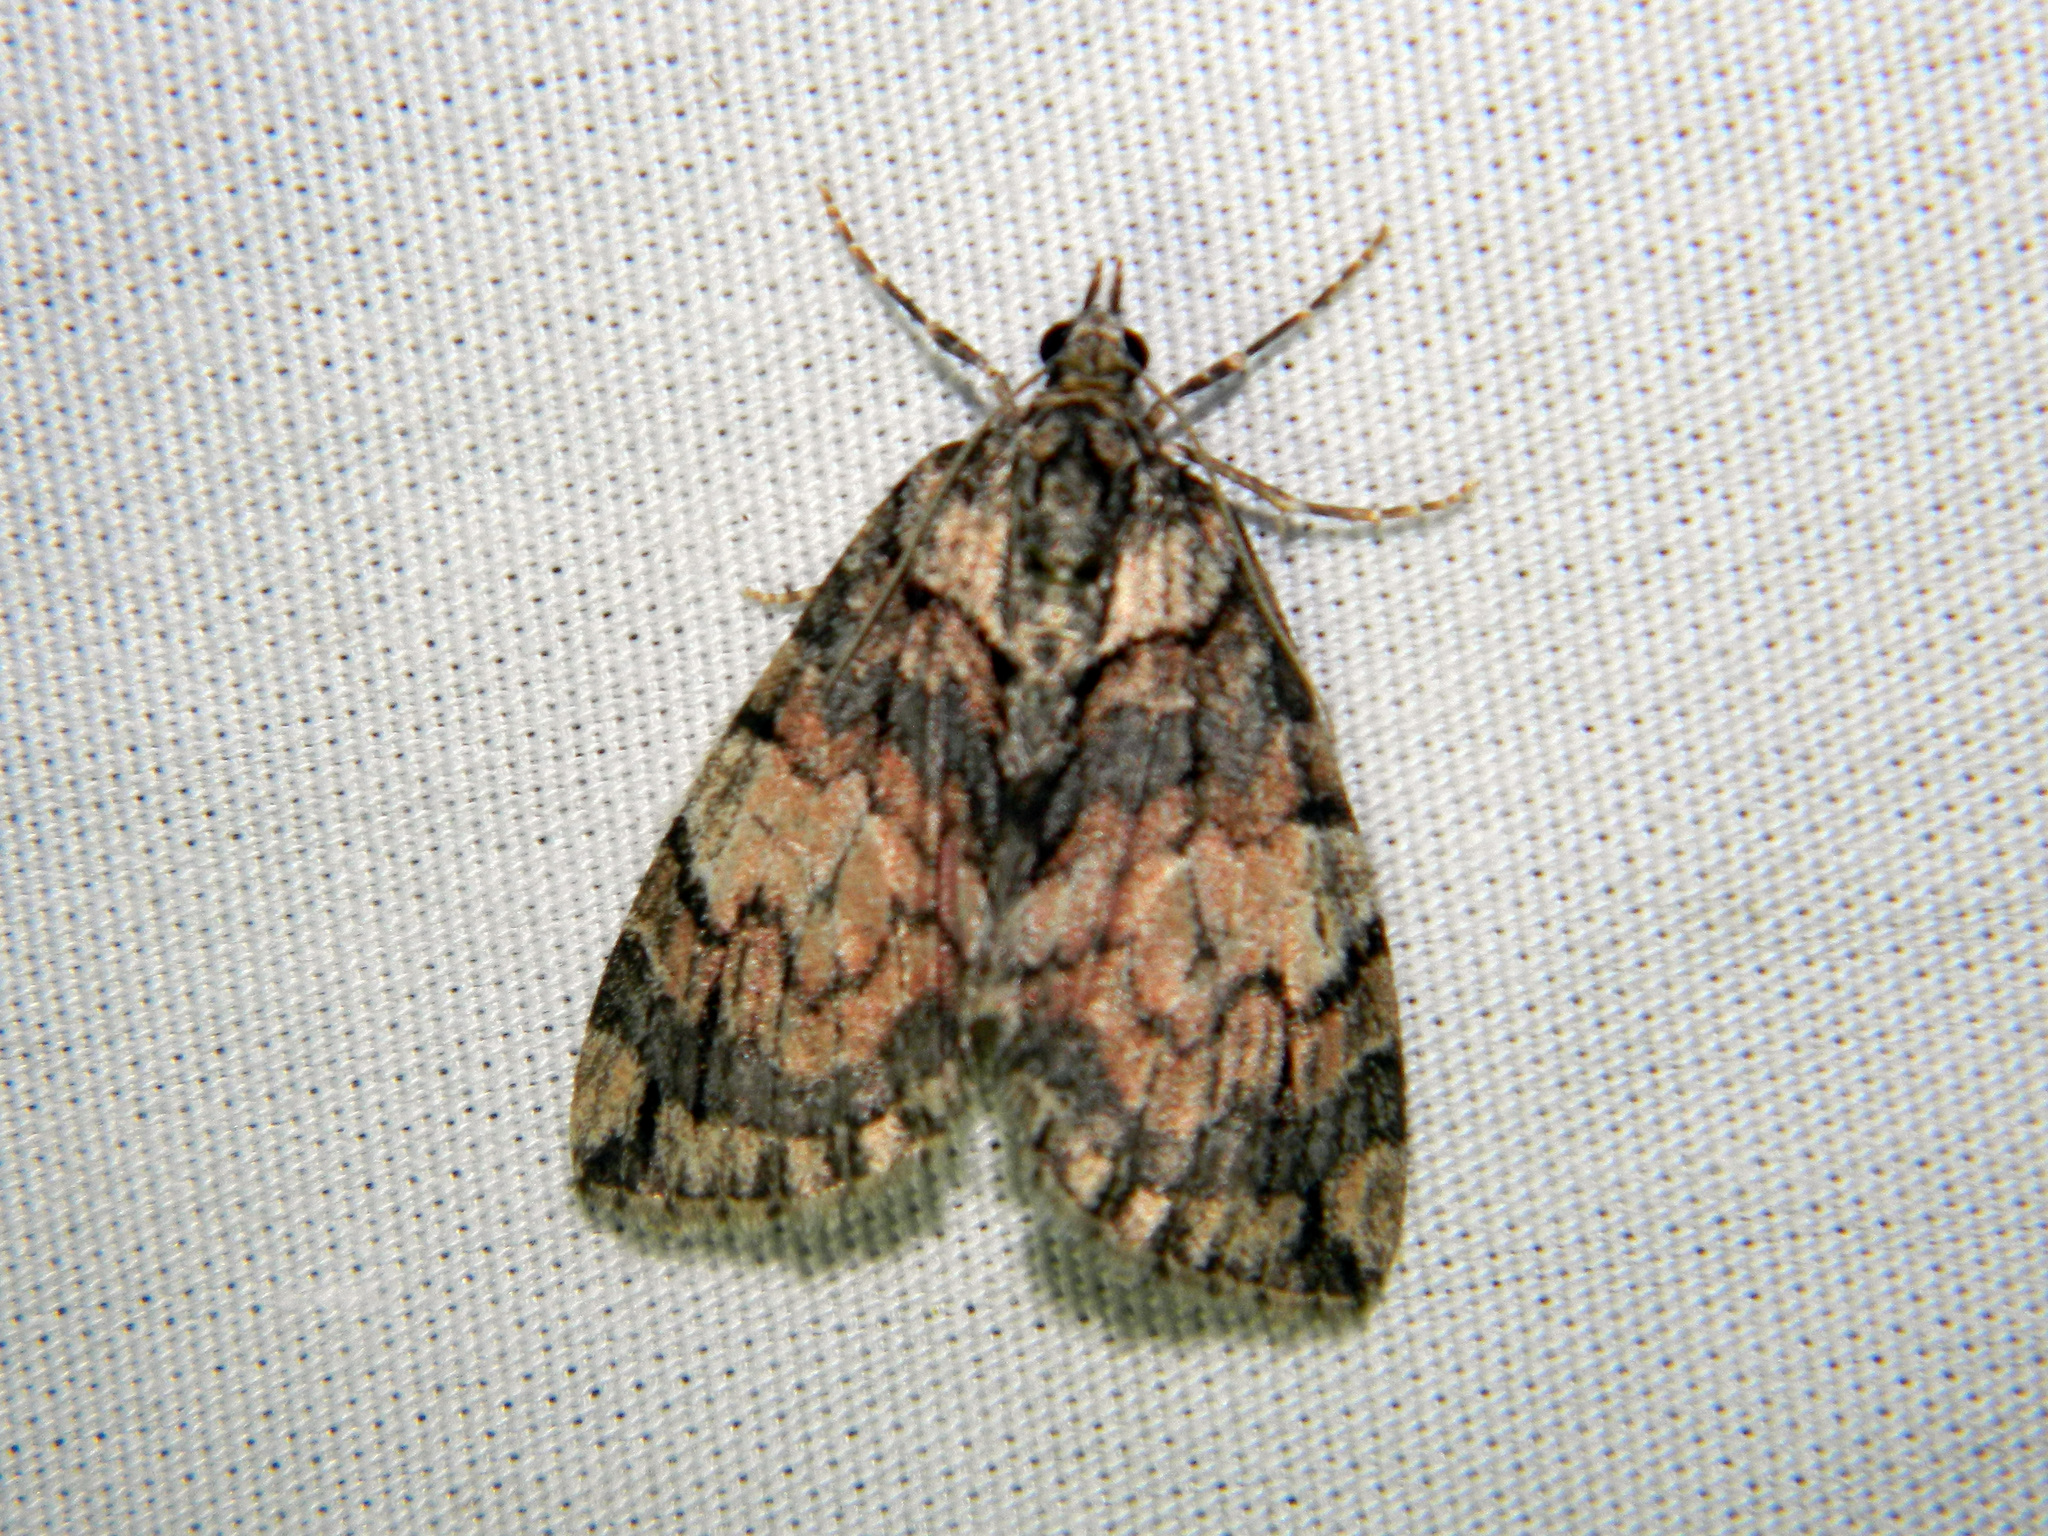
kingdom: Animalia
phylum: Arthropoda
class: Insecta
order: Lepidoptera
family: Geometridae
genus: Hydriomena
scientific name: Hydriomena perfracta
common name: Shattered hydriomena moth
